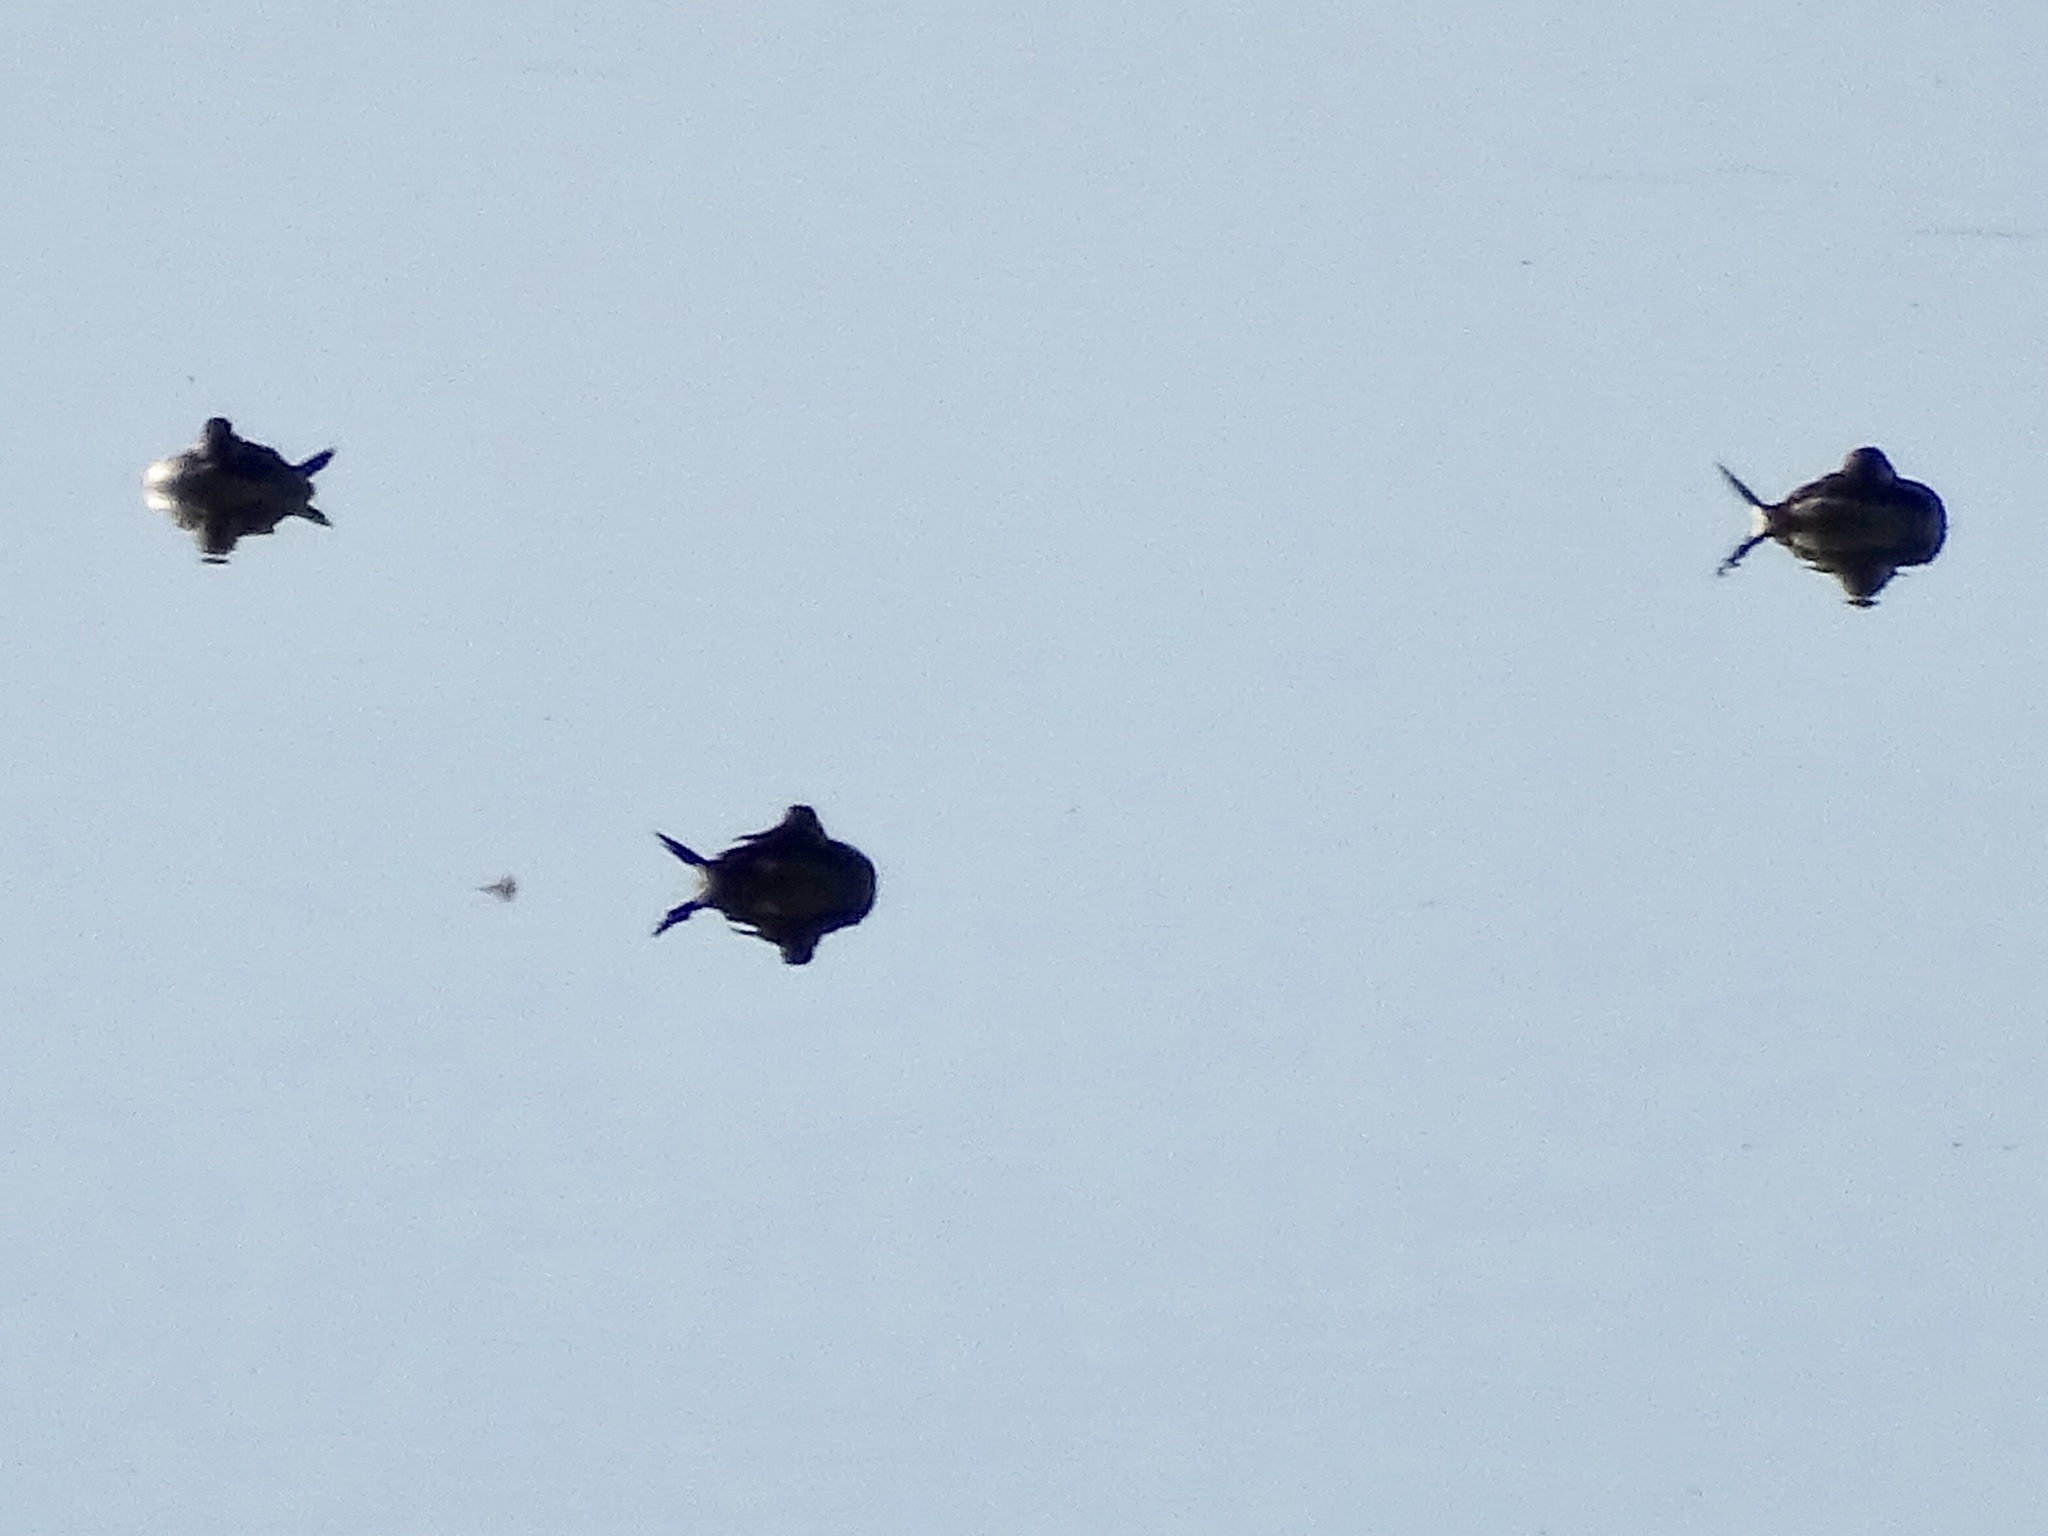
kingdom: Animalia
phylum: Chordata
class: Aves
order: Anseriformes
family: Anatidae
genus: Oxyura
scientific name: Oxyura jamaicensis
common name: Ruddy duck
